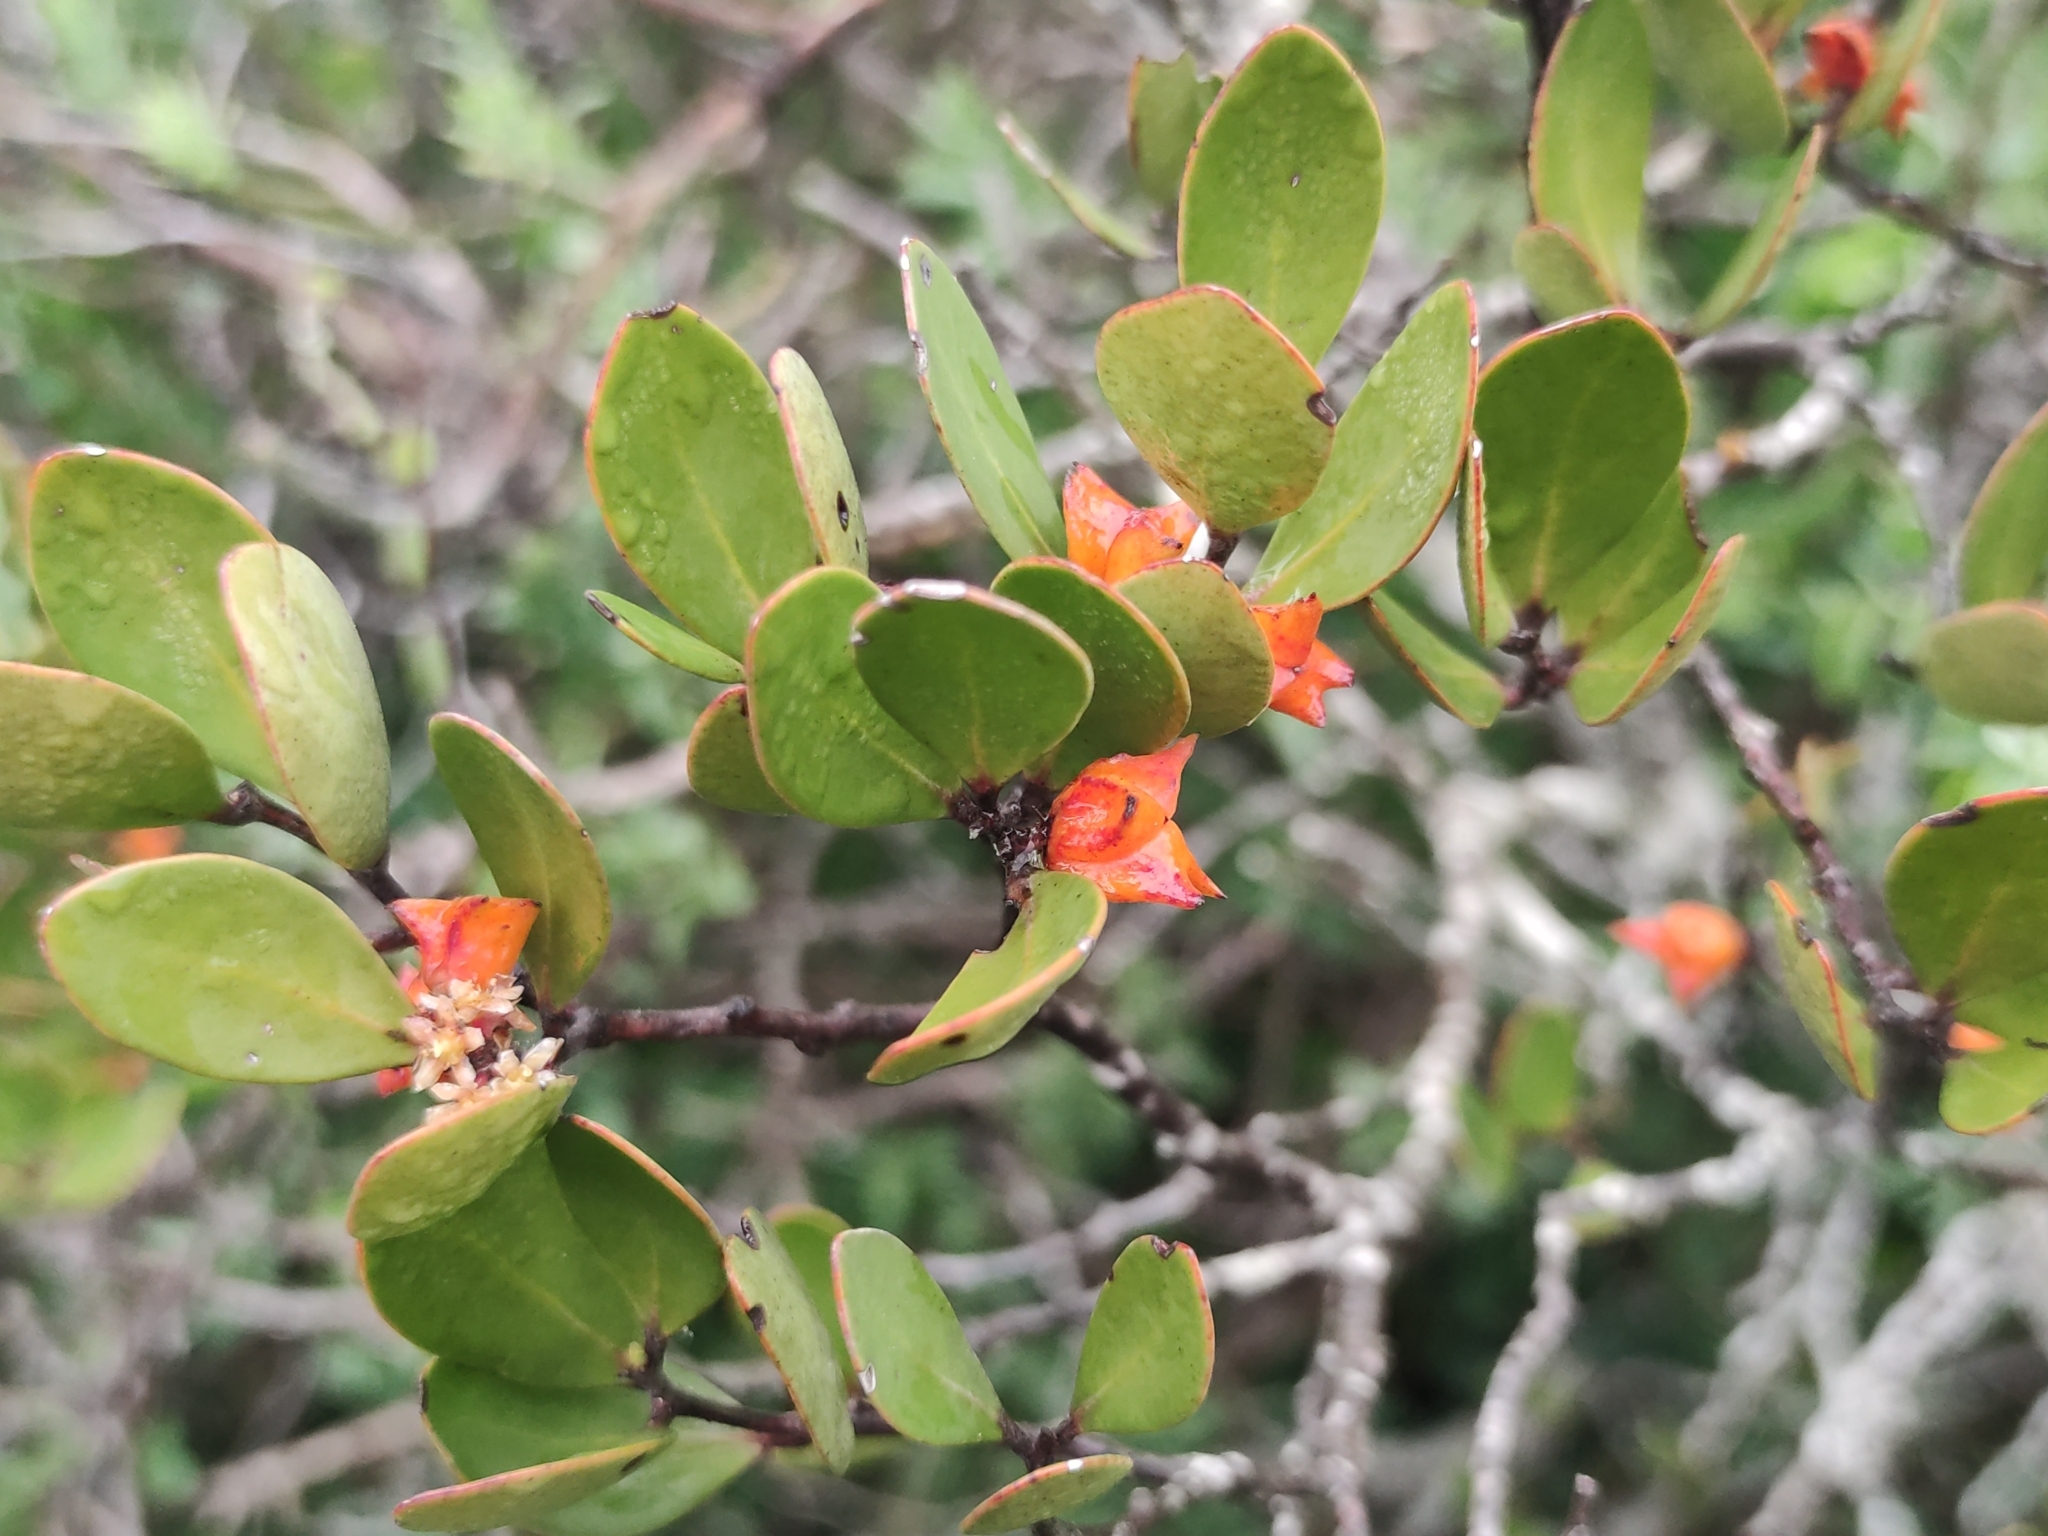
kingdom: Plantae
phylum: Tracheophyta
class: Magnoliopsida
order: Celastrales
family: Celastraceae
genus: Pterocelastrus
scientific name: Pterocelastrus tricuspidatus
